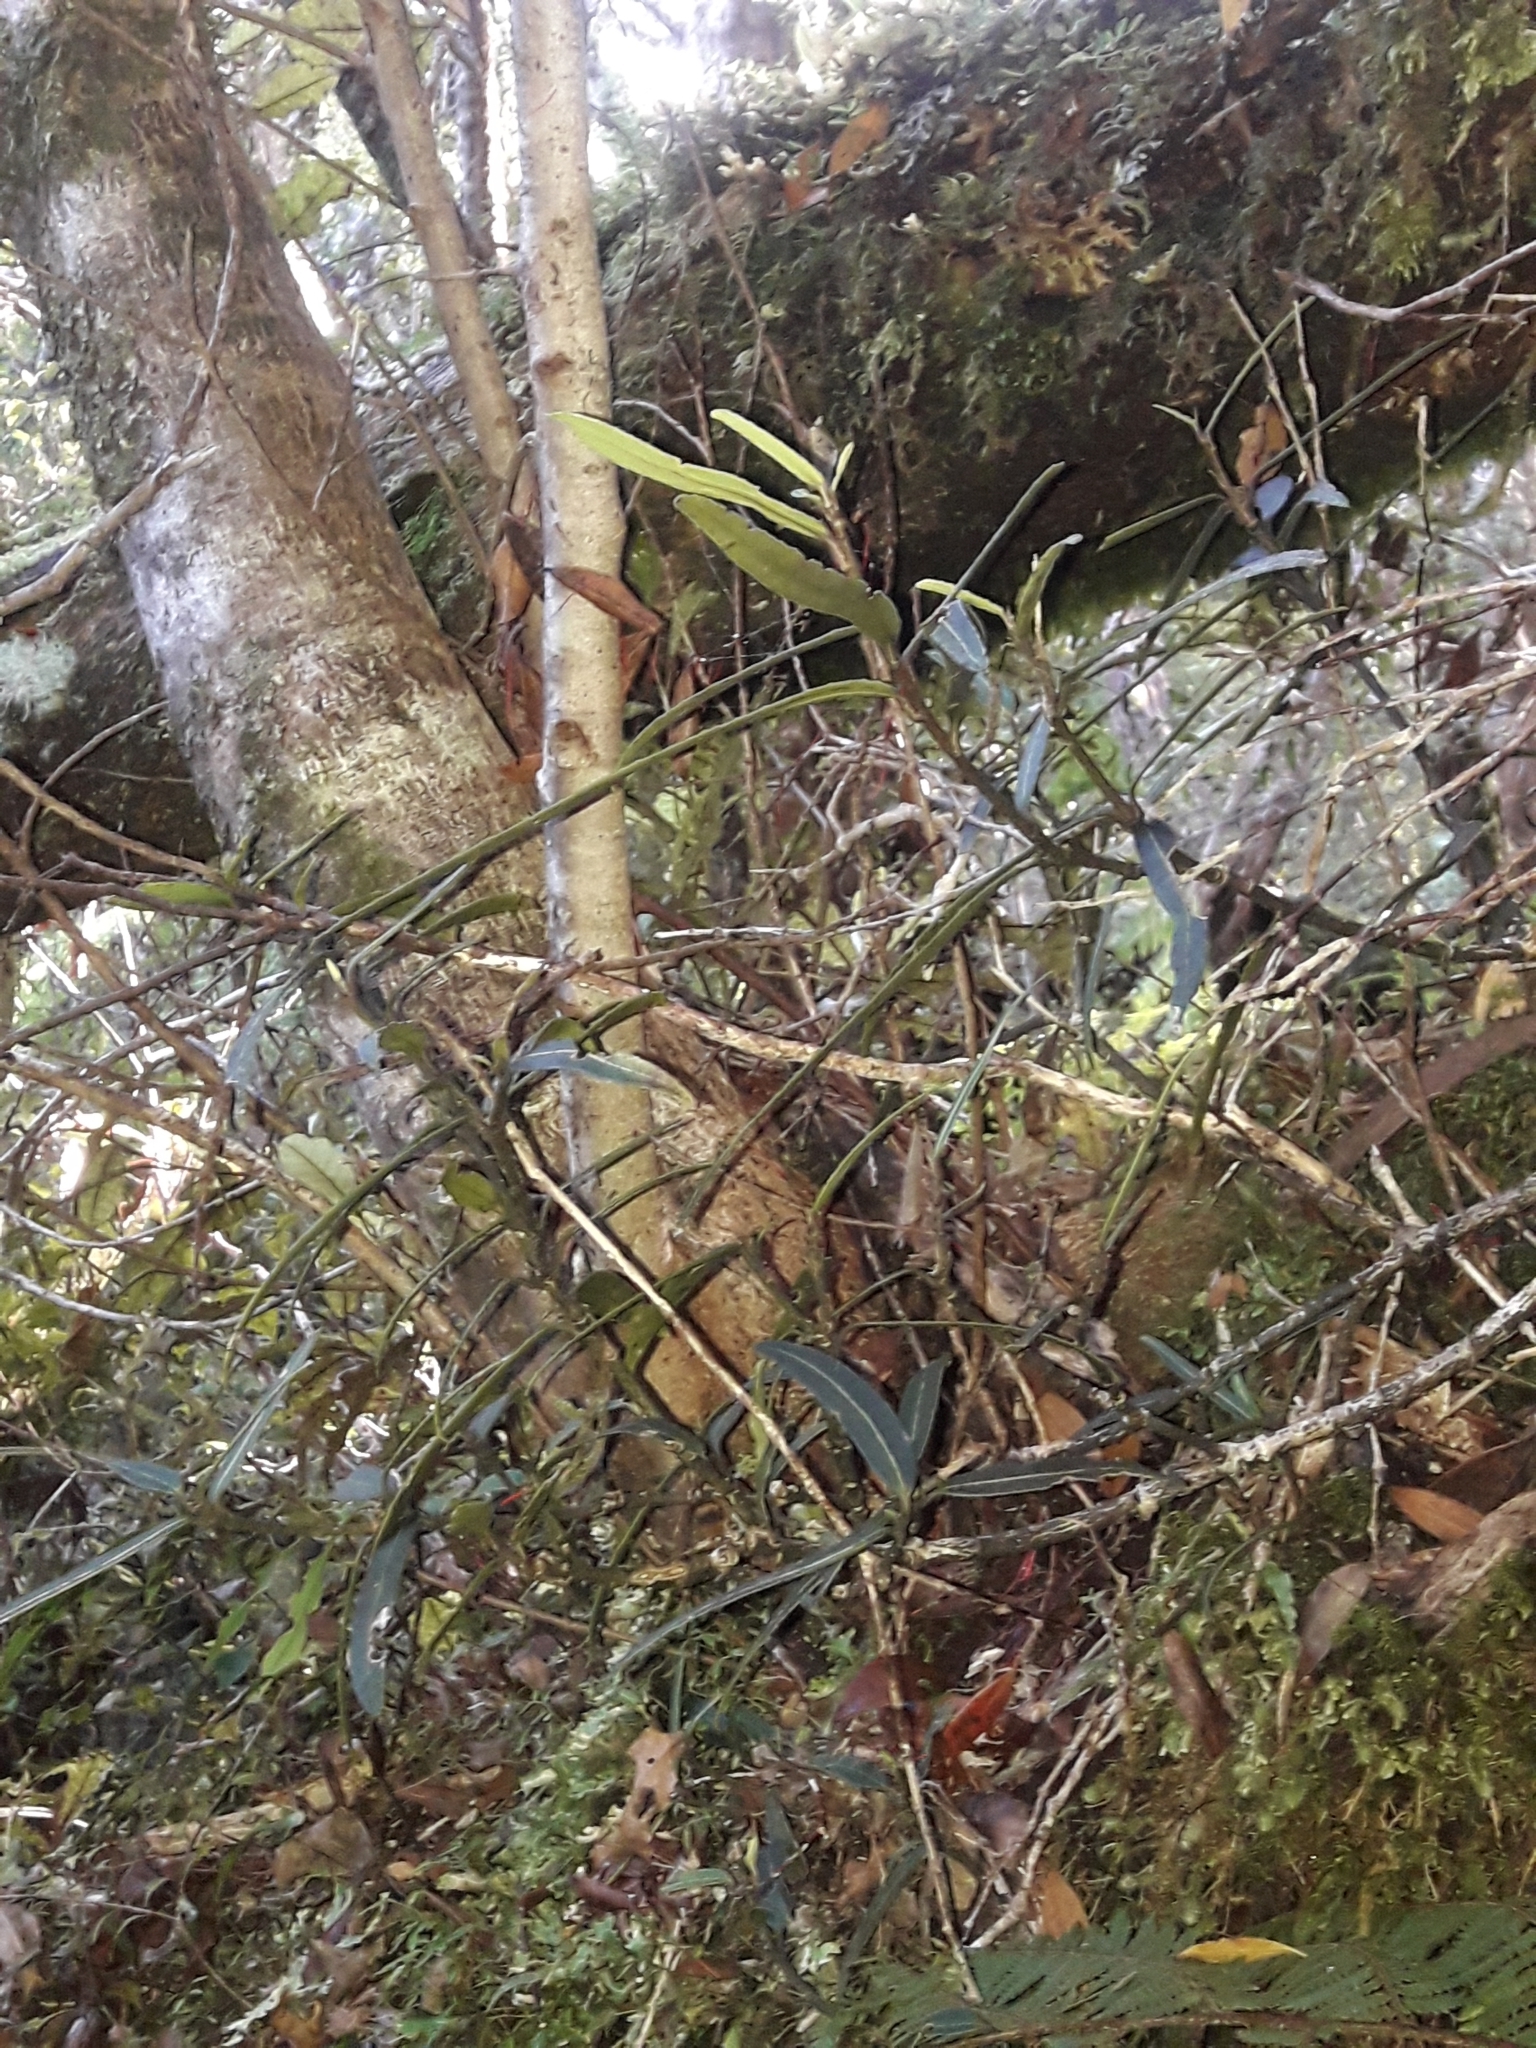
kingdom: Plantae
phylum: Tracheophyta
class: Magnoliopsida
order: Apiales
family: Araliaceae
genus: Pseudopanax
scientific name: Pseudopanax linearis
